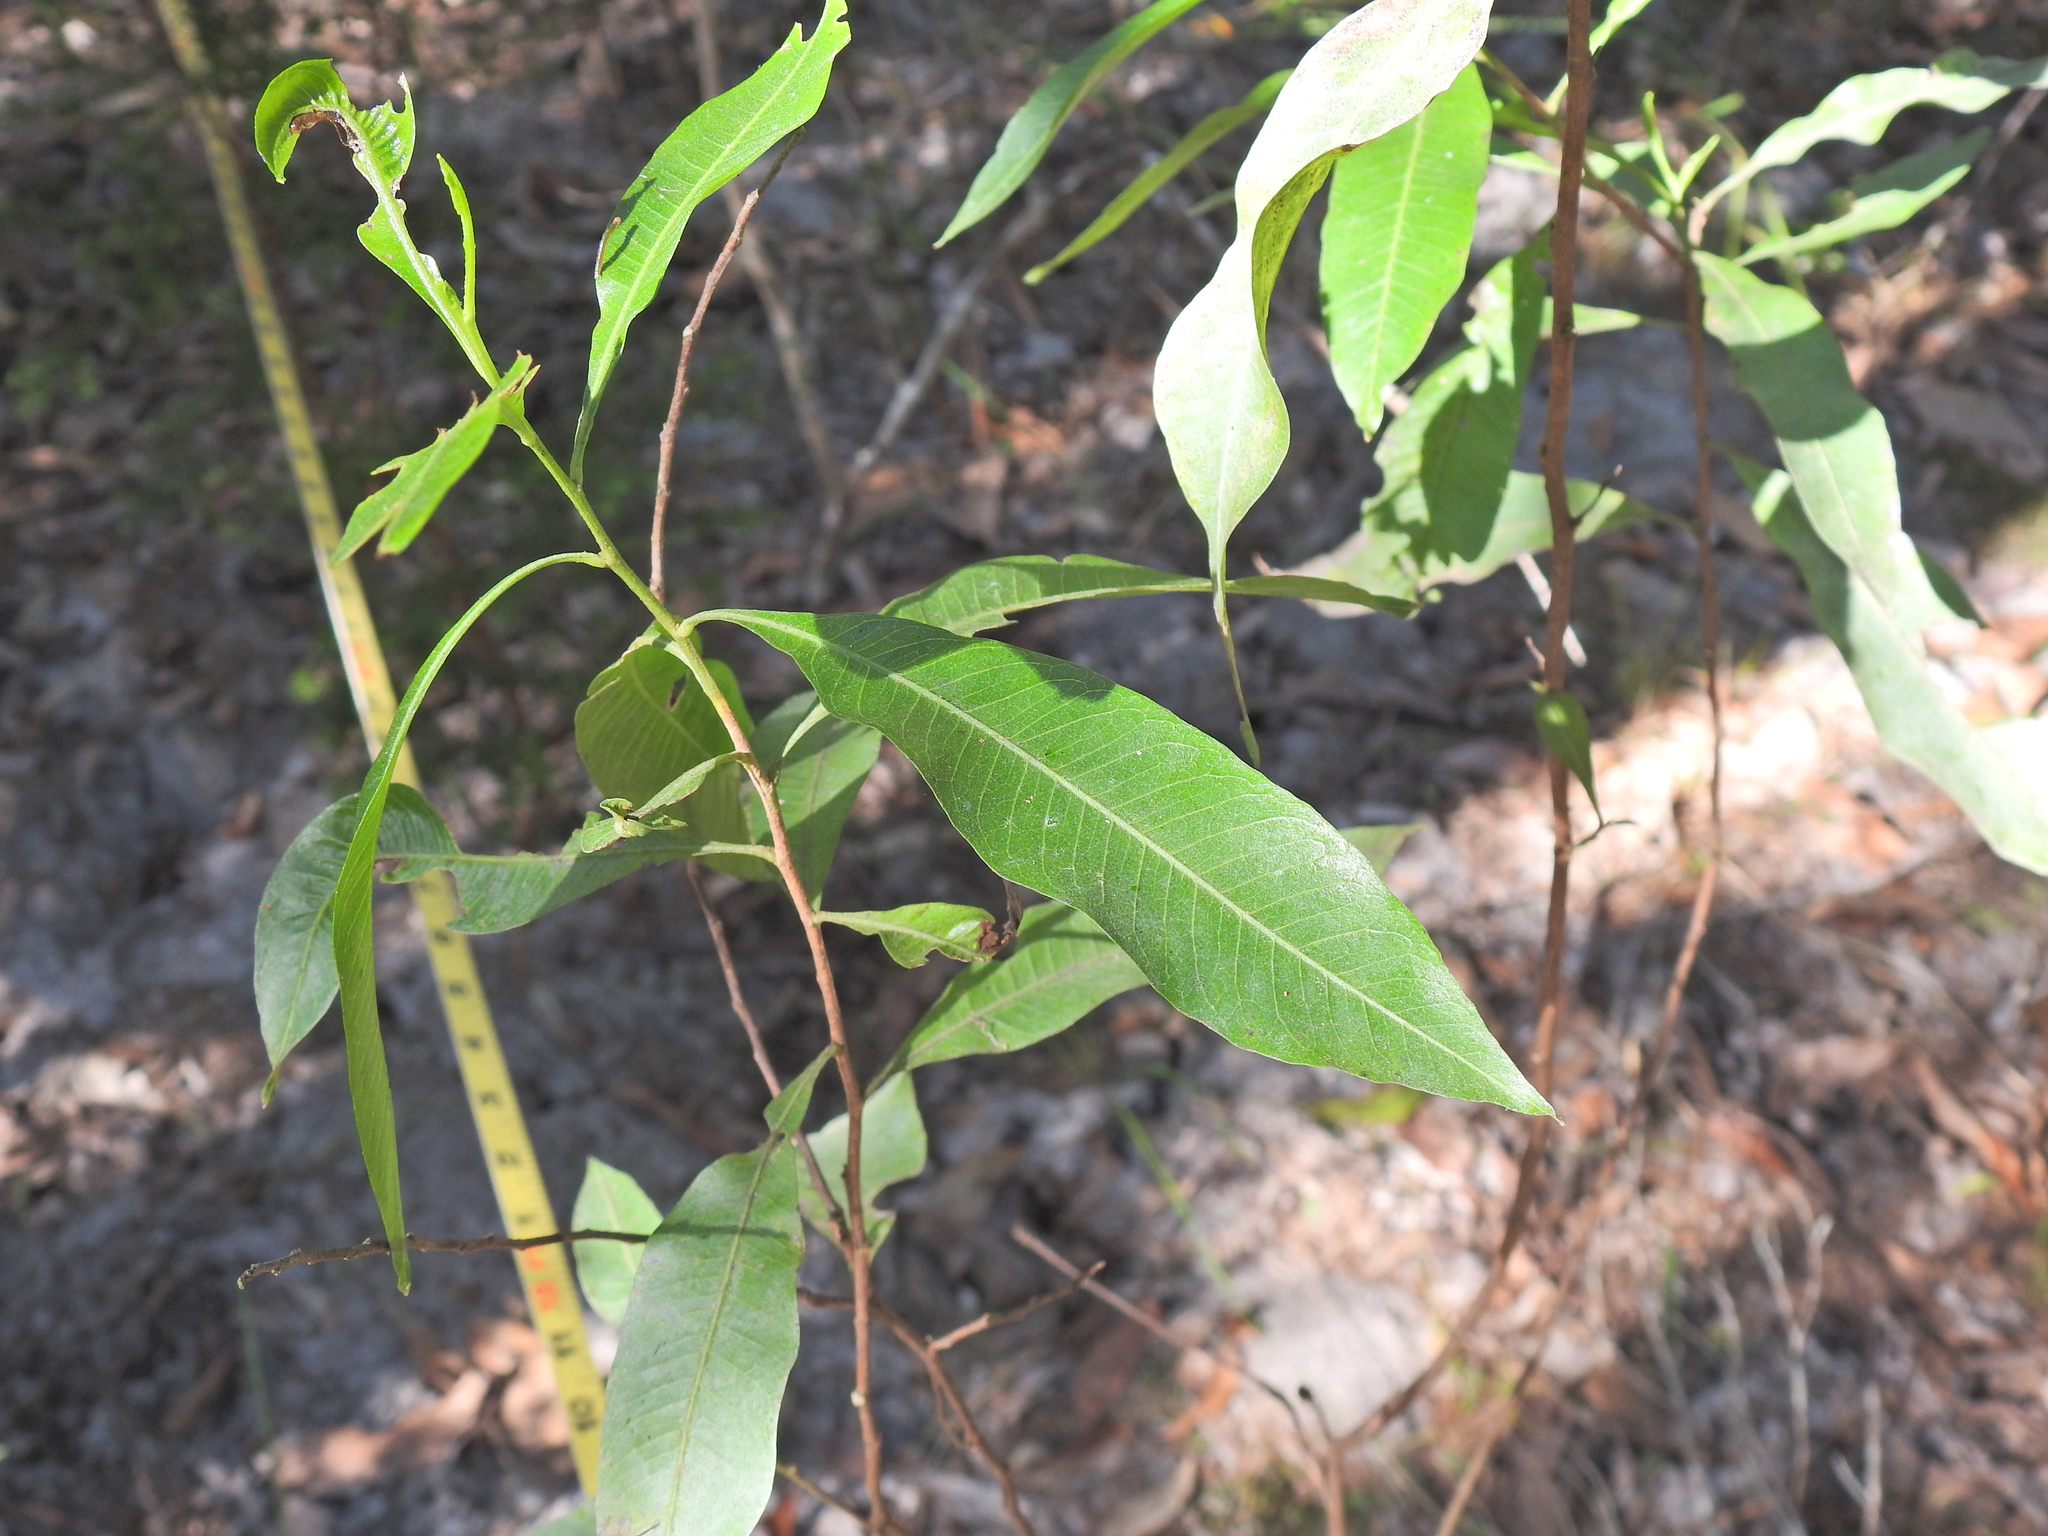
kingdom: Plantae
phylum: Tracheophyta
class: Magnoliopsida
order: Sapindales
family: Sapindaceae
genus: Dodonaea
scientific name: Dodonaea viscosa
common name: Hopbush
